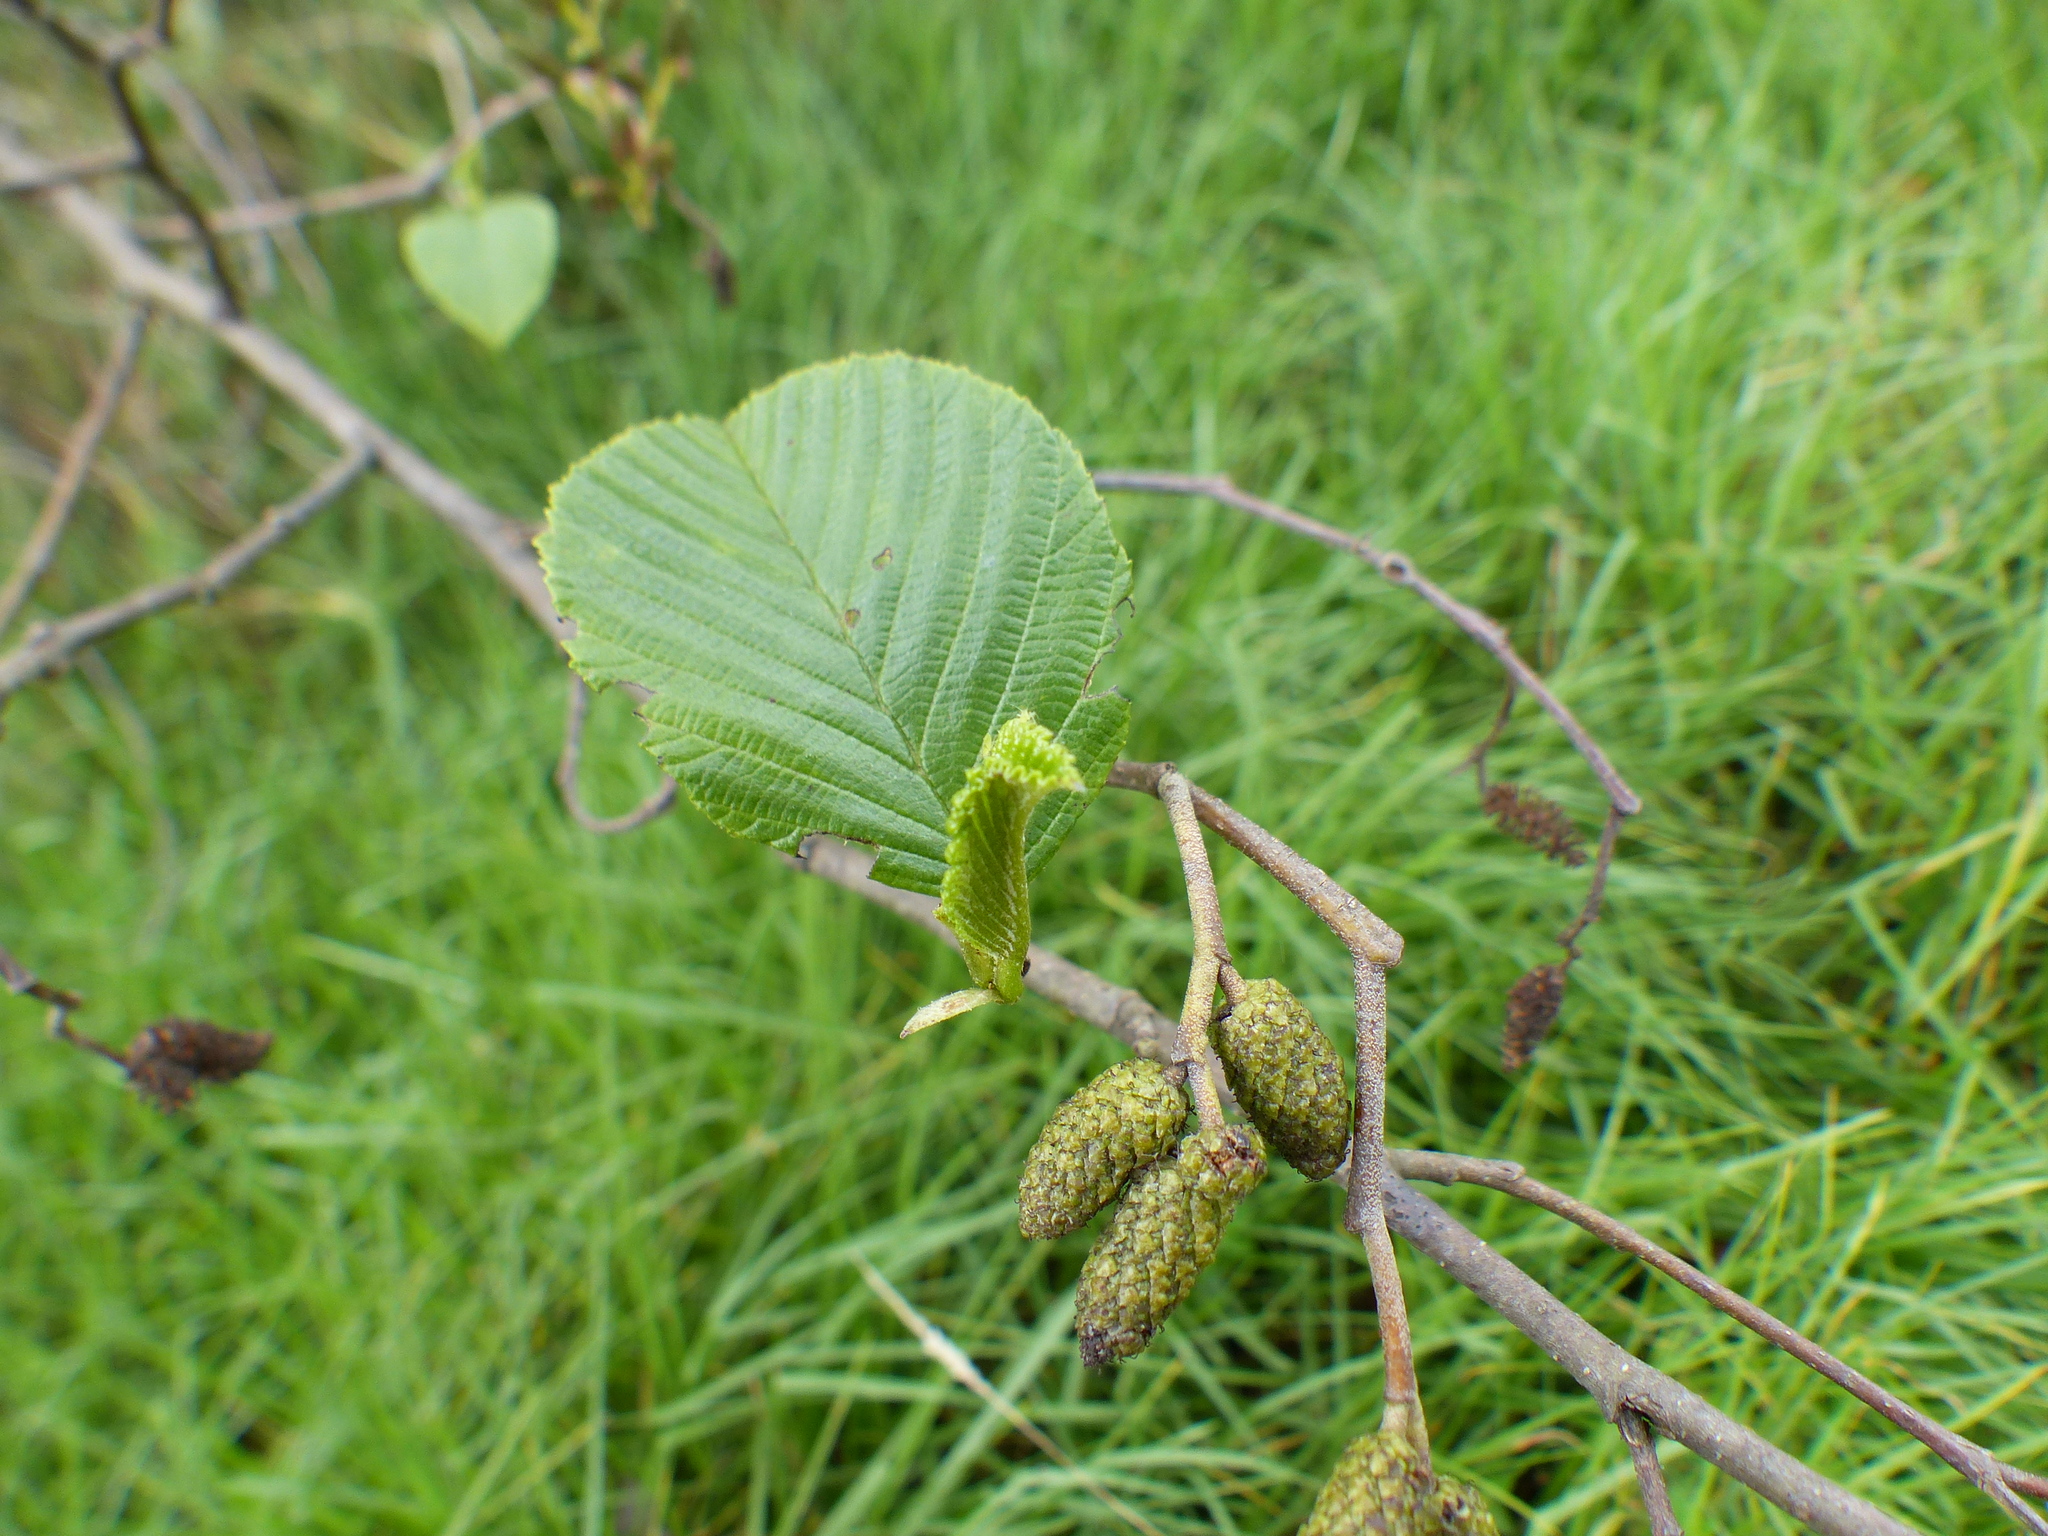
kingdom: Plantae
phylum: Tracheophyta
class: Magnoliopsida
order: Fagales
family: Betulaceae
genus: Alnus
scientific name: Alnus acuminata
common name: Alder
